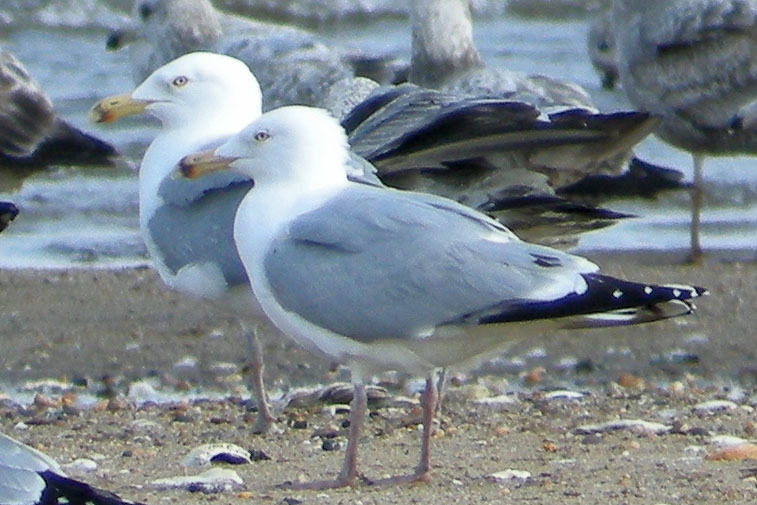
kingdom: Animalia
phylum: Chordata
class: Aves
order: Charadriiformes
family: Laridae
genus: Larus
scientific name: Larus argentatus
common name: Herring gull
